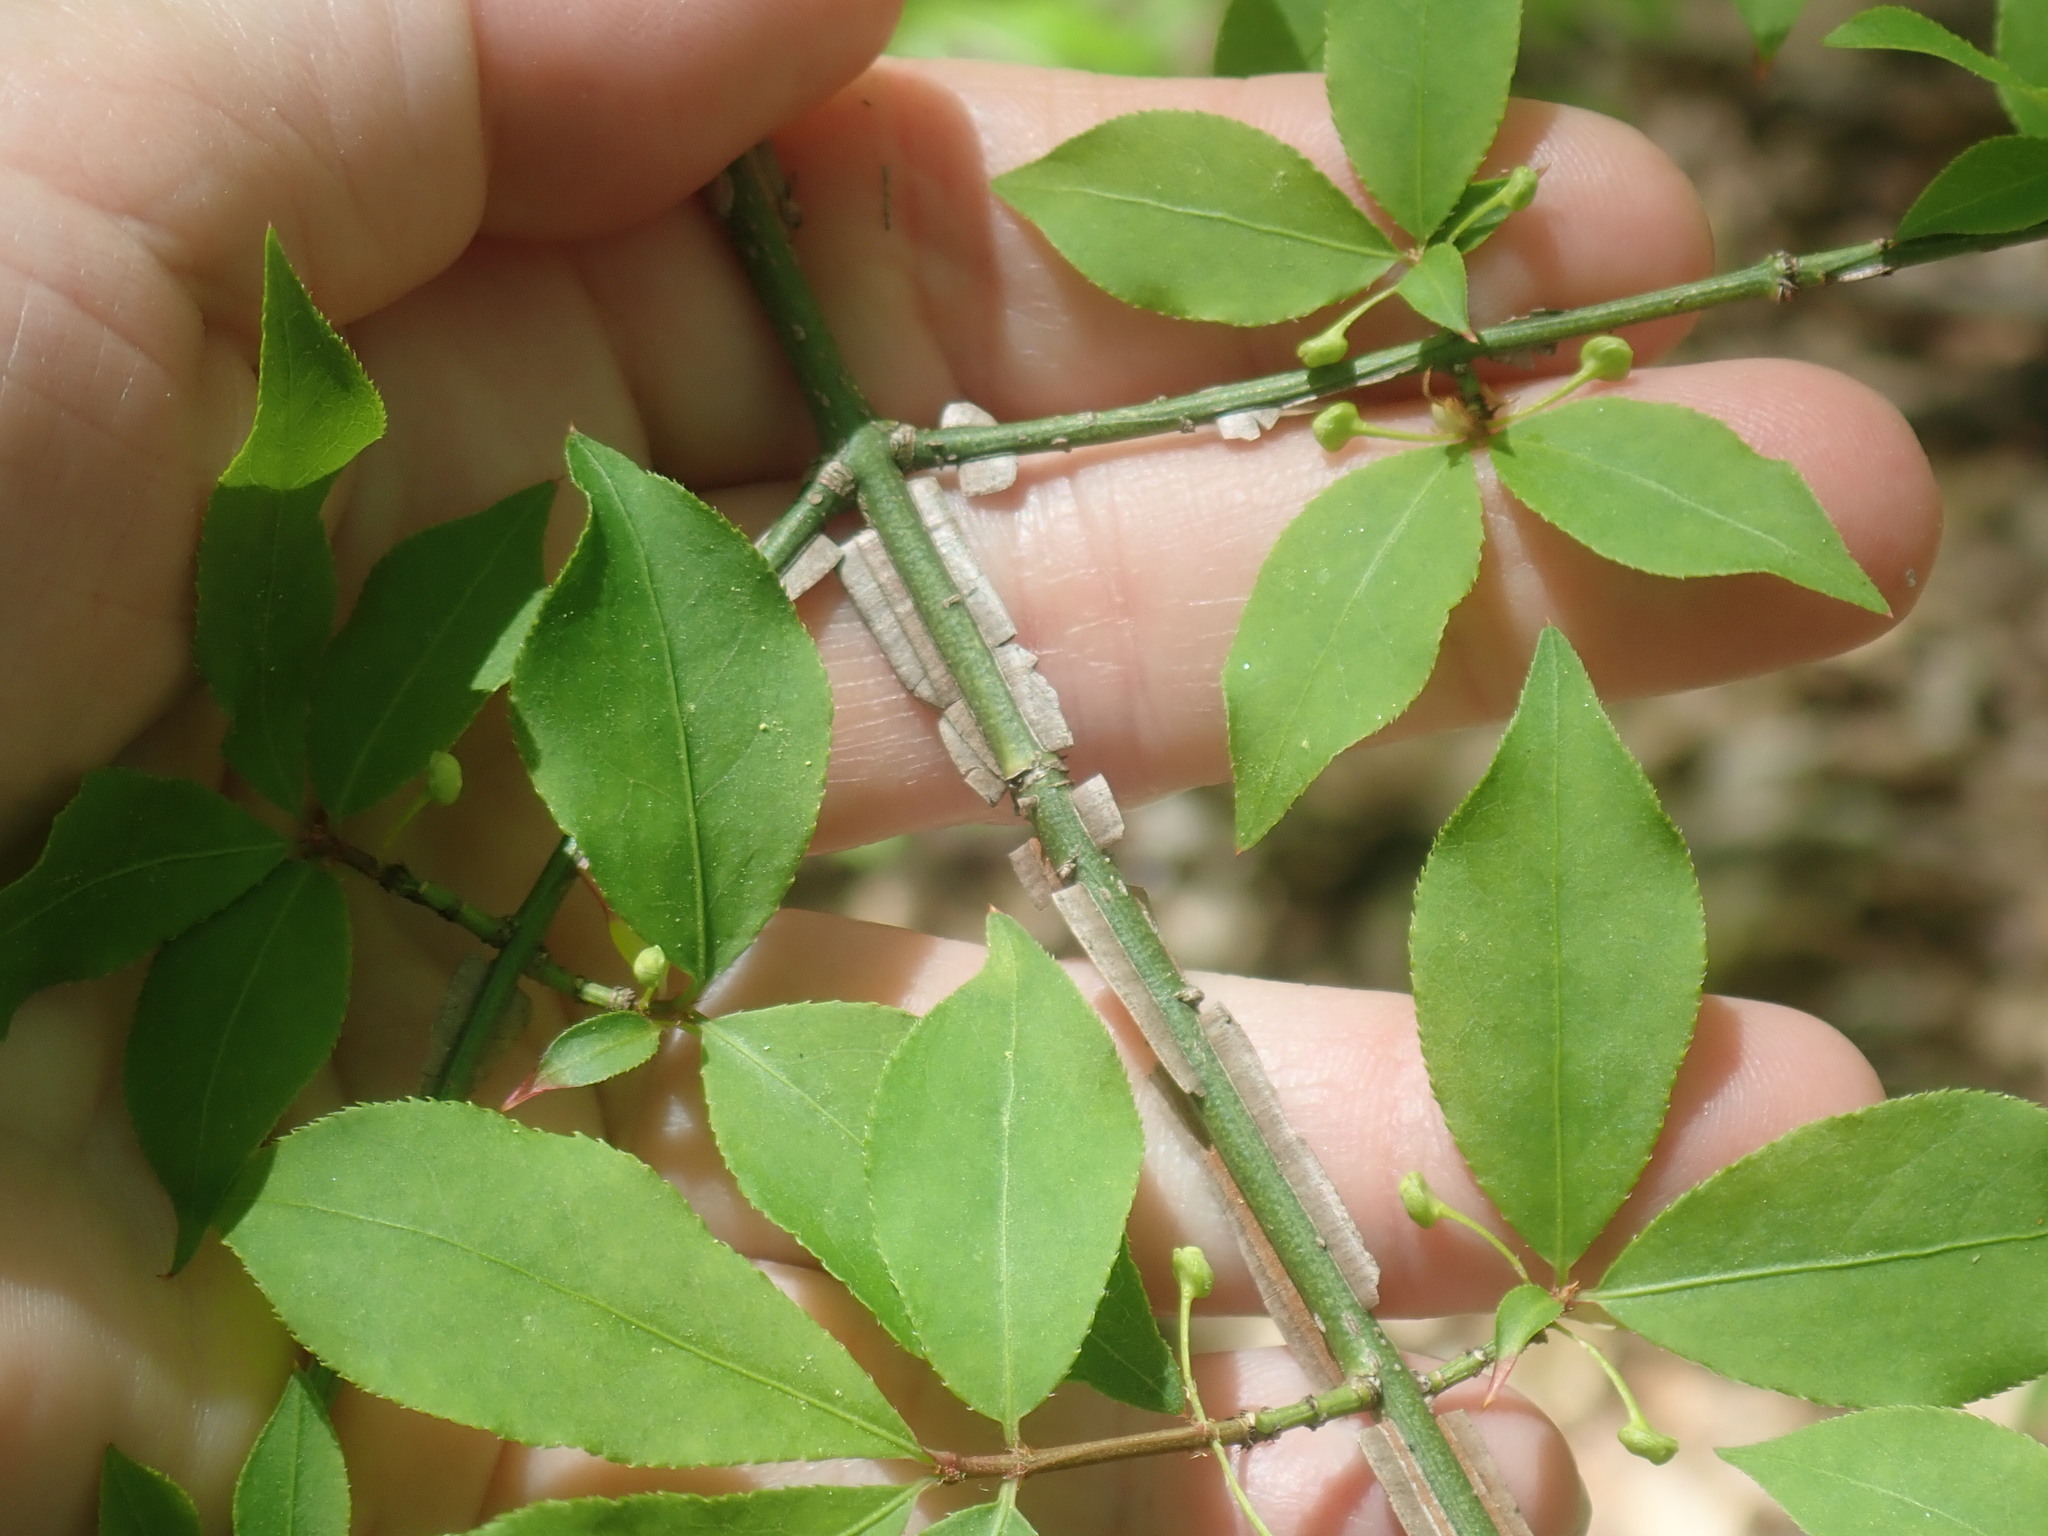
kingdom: Plantae
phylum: Tracheophyta
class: Magnoliopsida
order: Celastrales
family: Celastraceae
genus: Euonymus
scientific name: Euonymus alatus
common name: Winged euonymus
